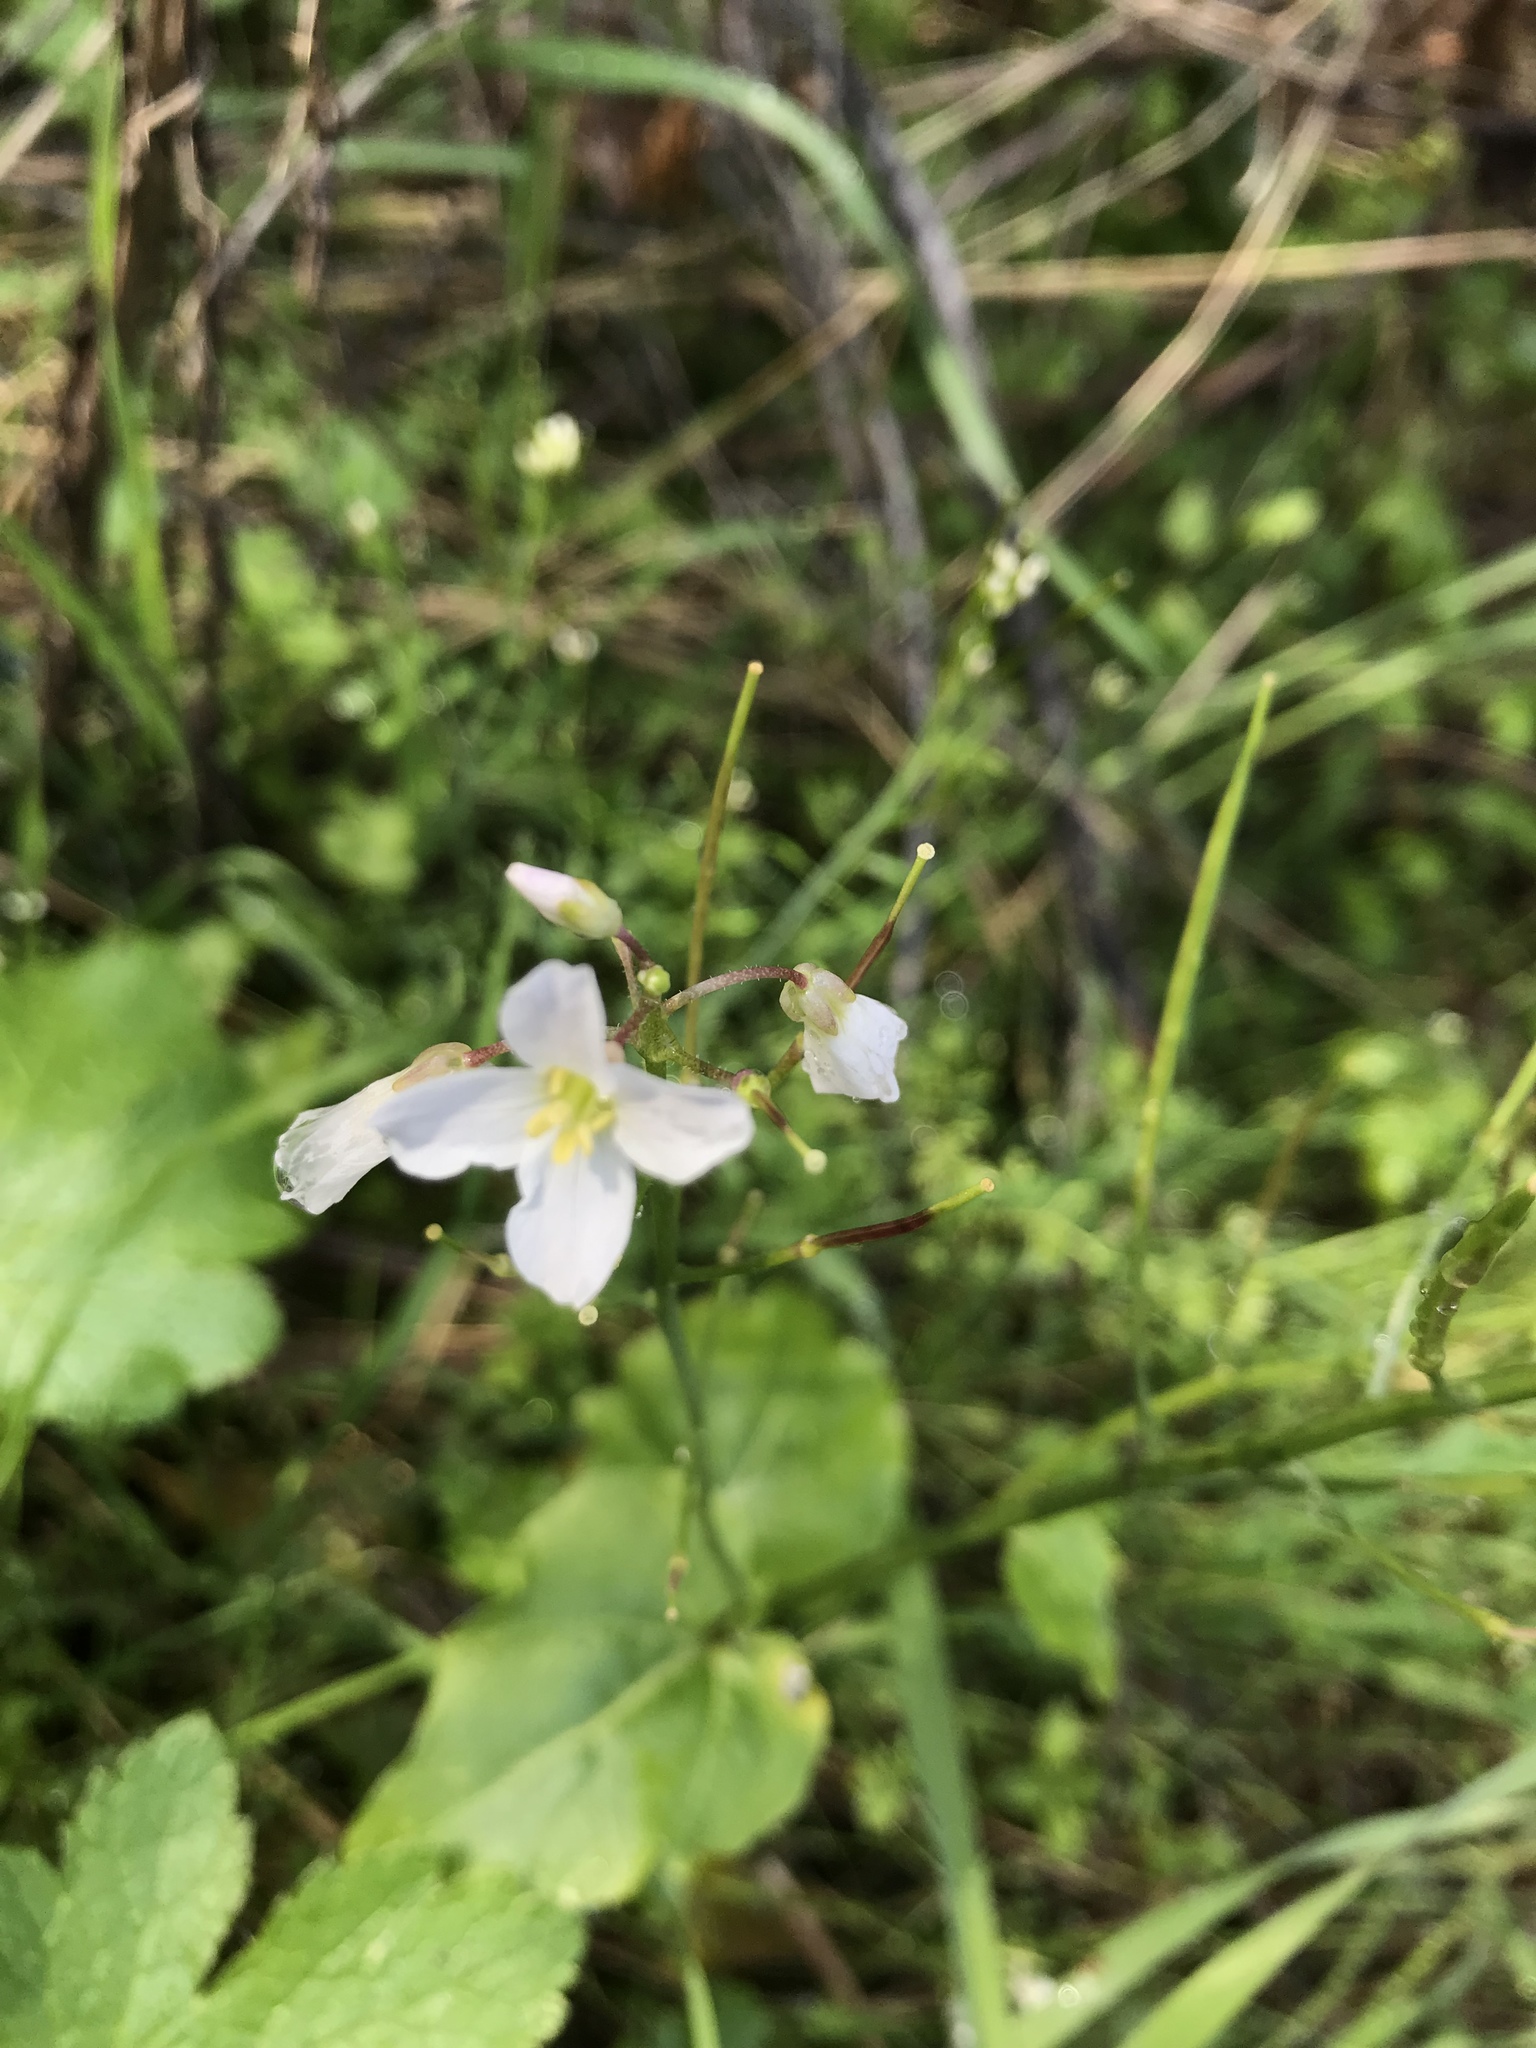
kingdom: Plantae
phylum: Tracheophyta
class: Magnoliopsida
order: Brassicales
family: Brassicaceae
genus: Cardamine
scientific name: Cardamine californica
